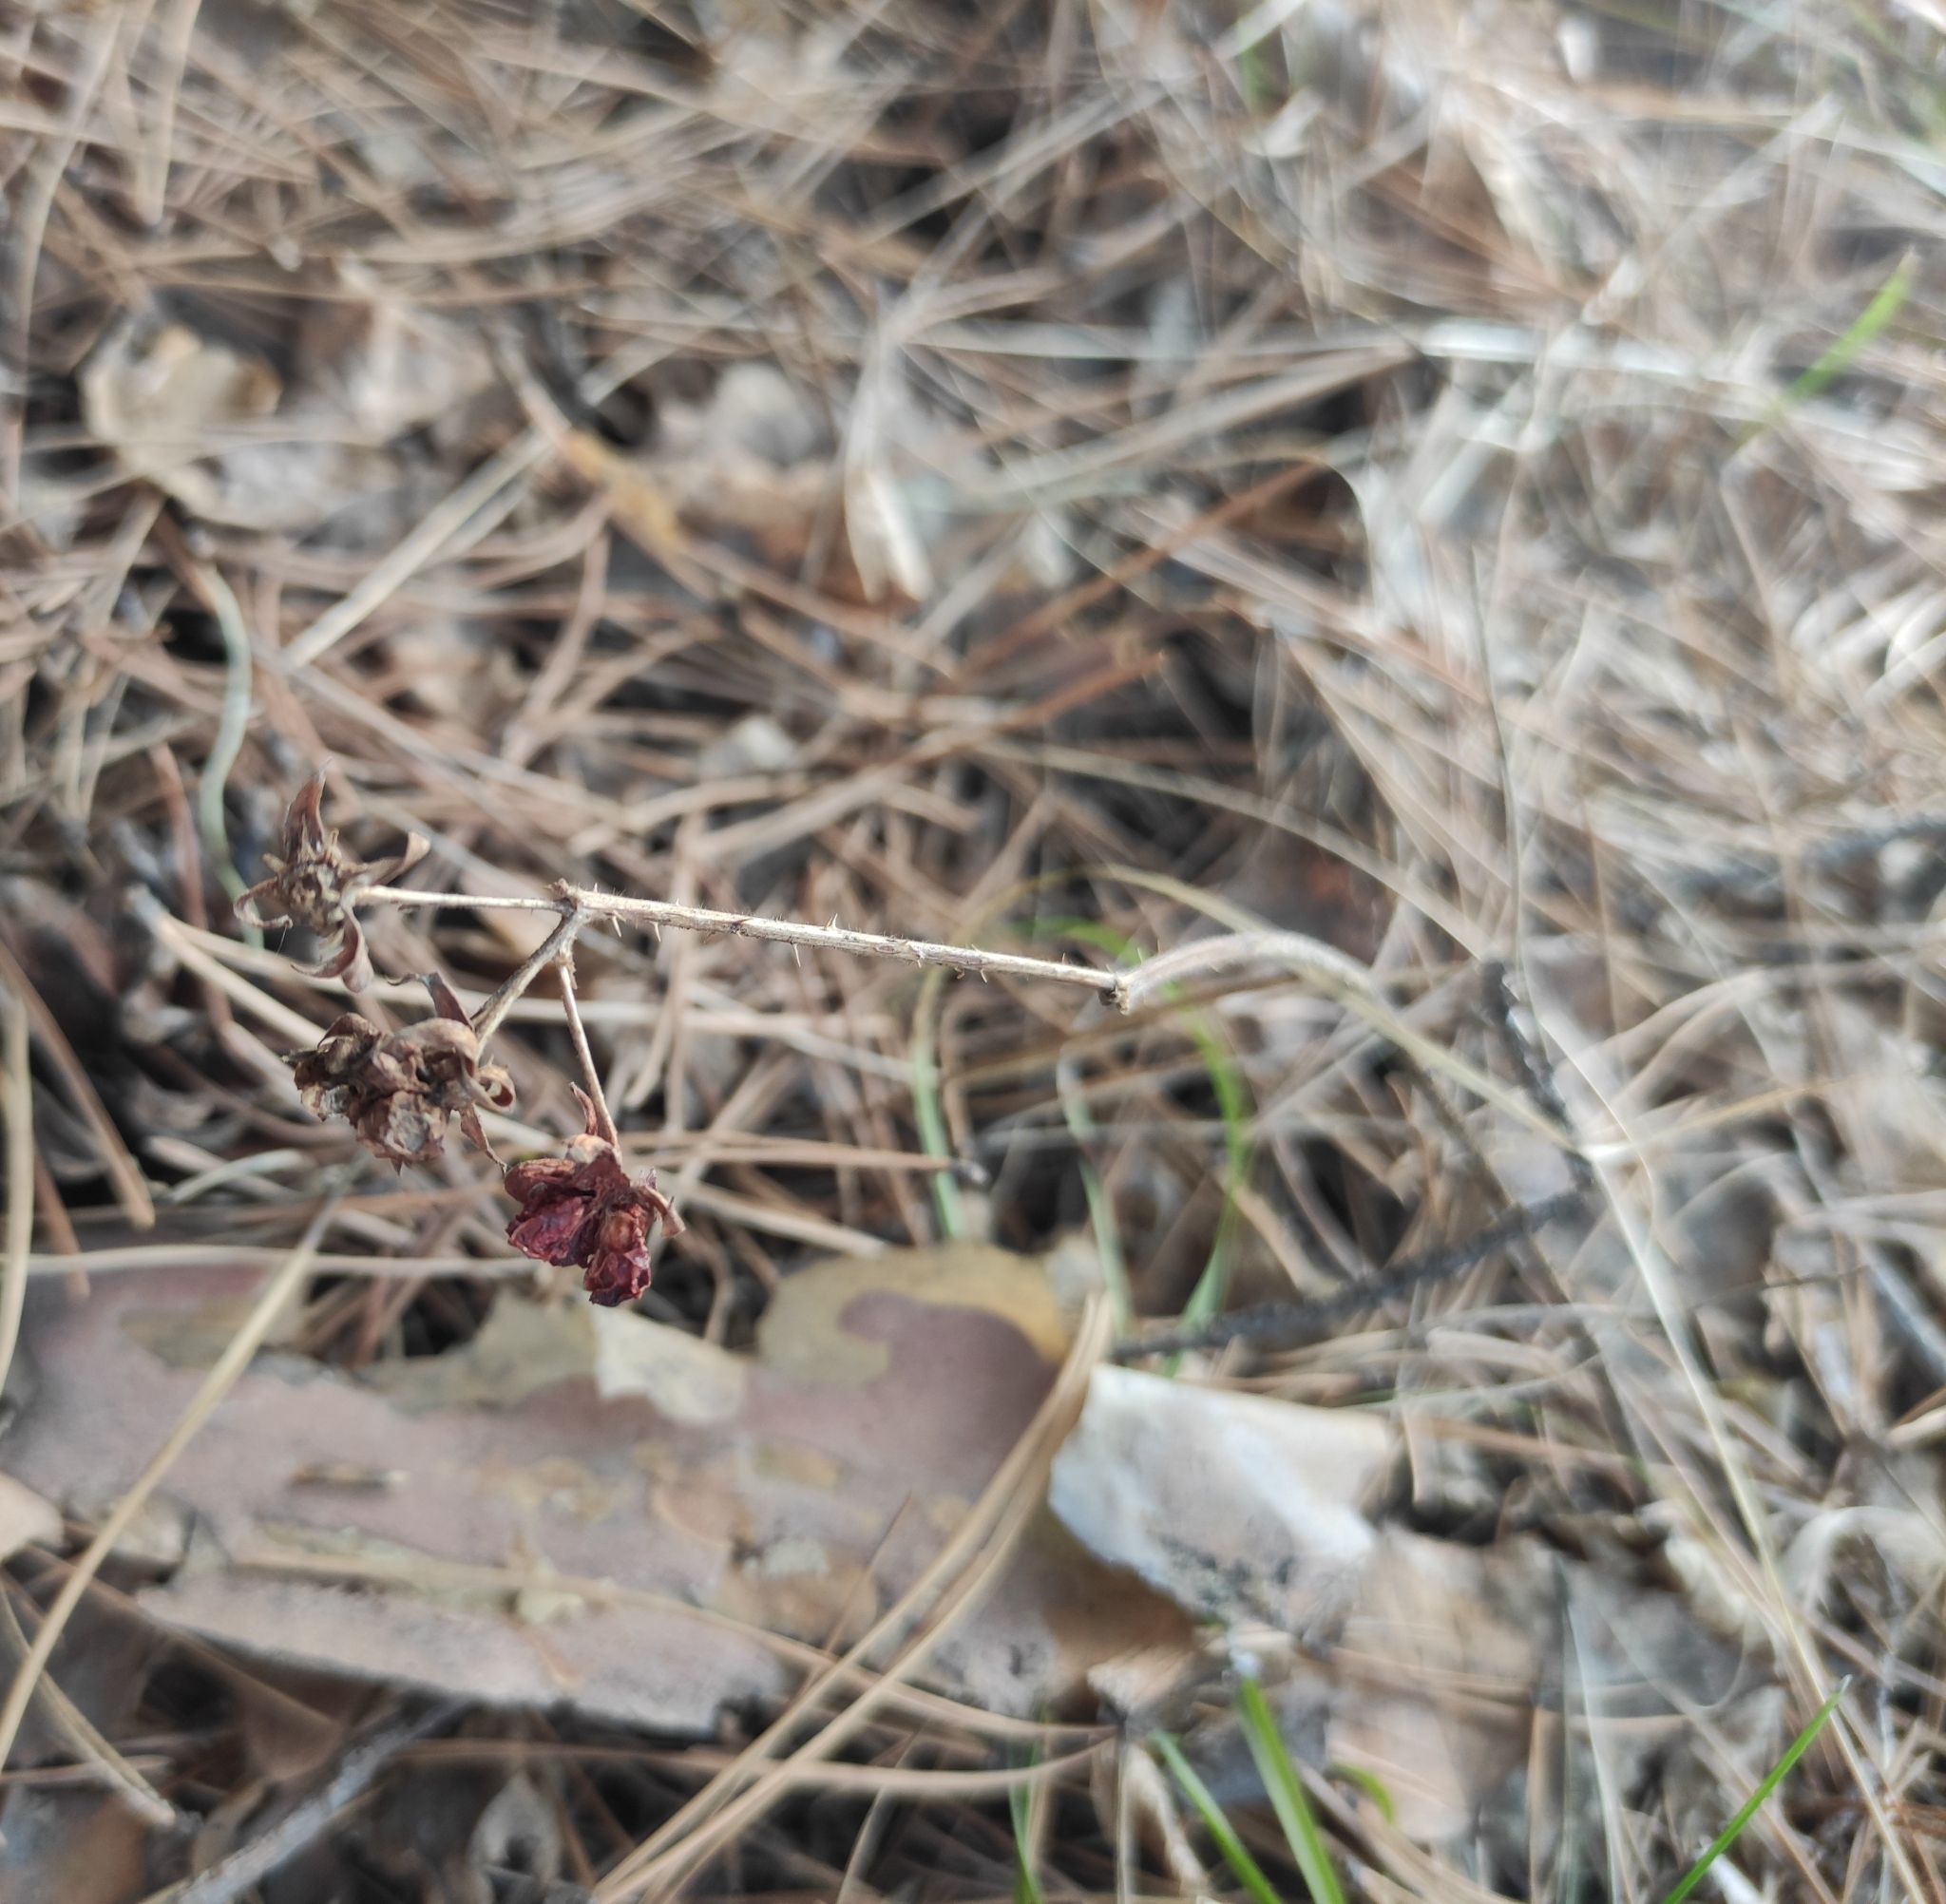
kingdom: Plantae
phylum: Tracheophyta
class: Magnoliopsida
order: Rosales
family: Rosaceae
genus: Rubus
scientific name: Rubus saxatilis
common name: Stone bramble
